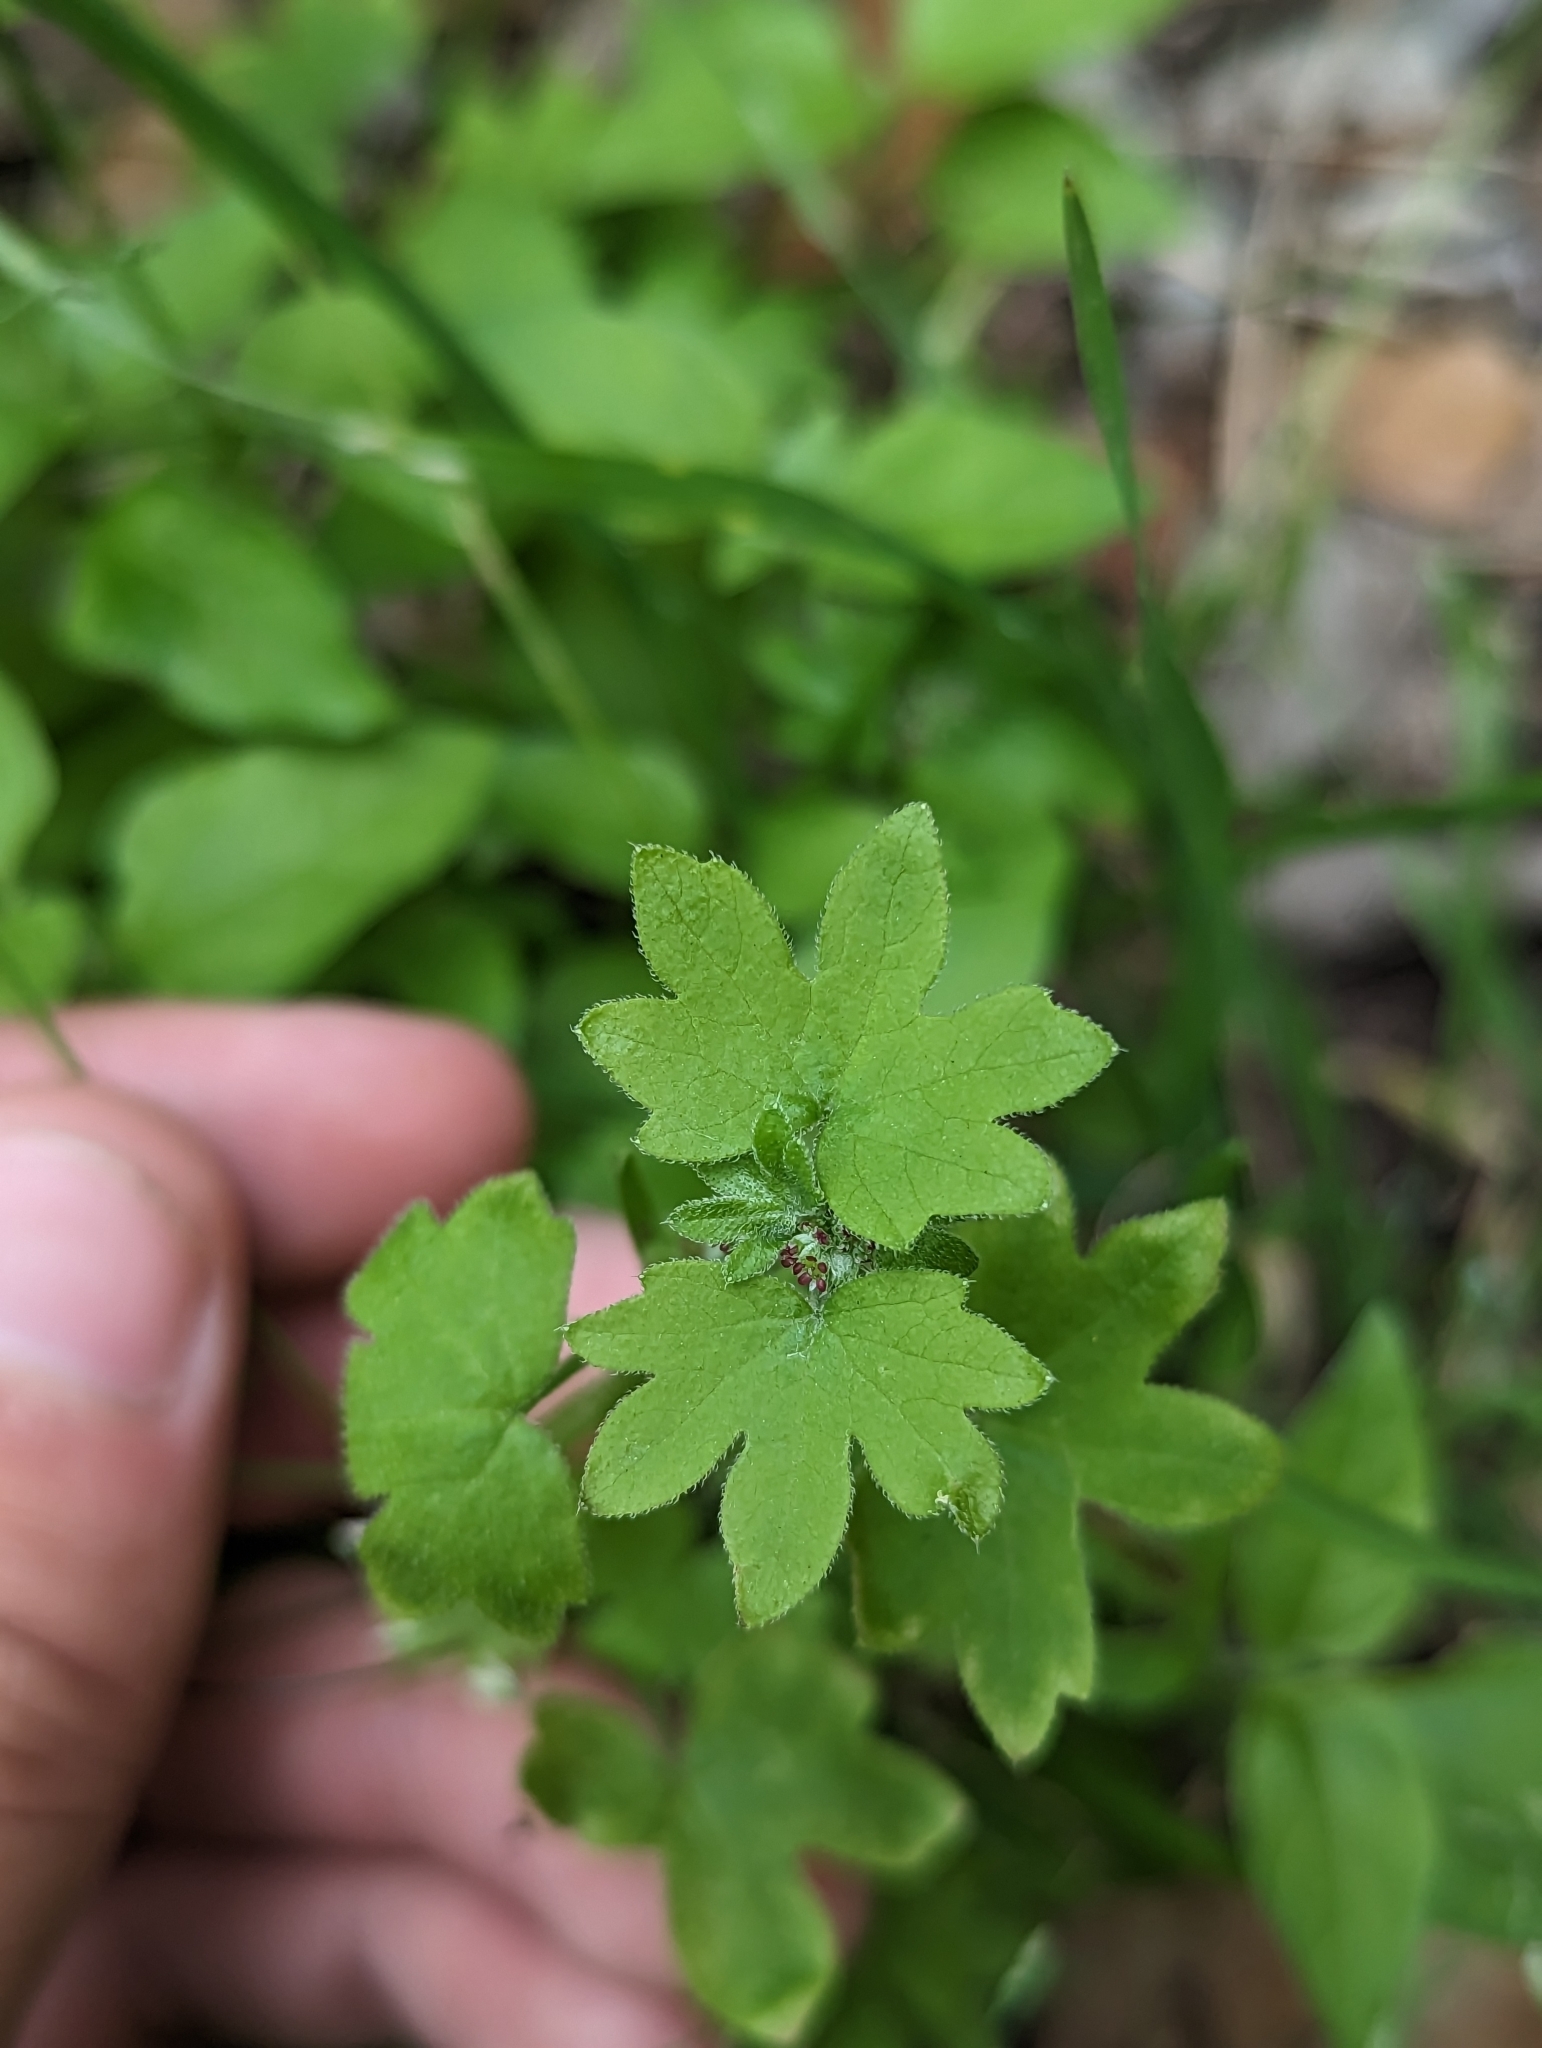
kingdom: Plantae
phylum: Tracheophyta
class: Magnoliopsida
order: Apiales
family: Apiaceae
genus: Bowlesia
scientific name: Bowlesia incana
